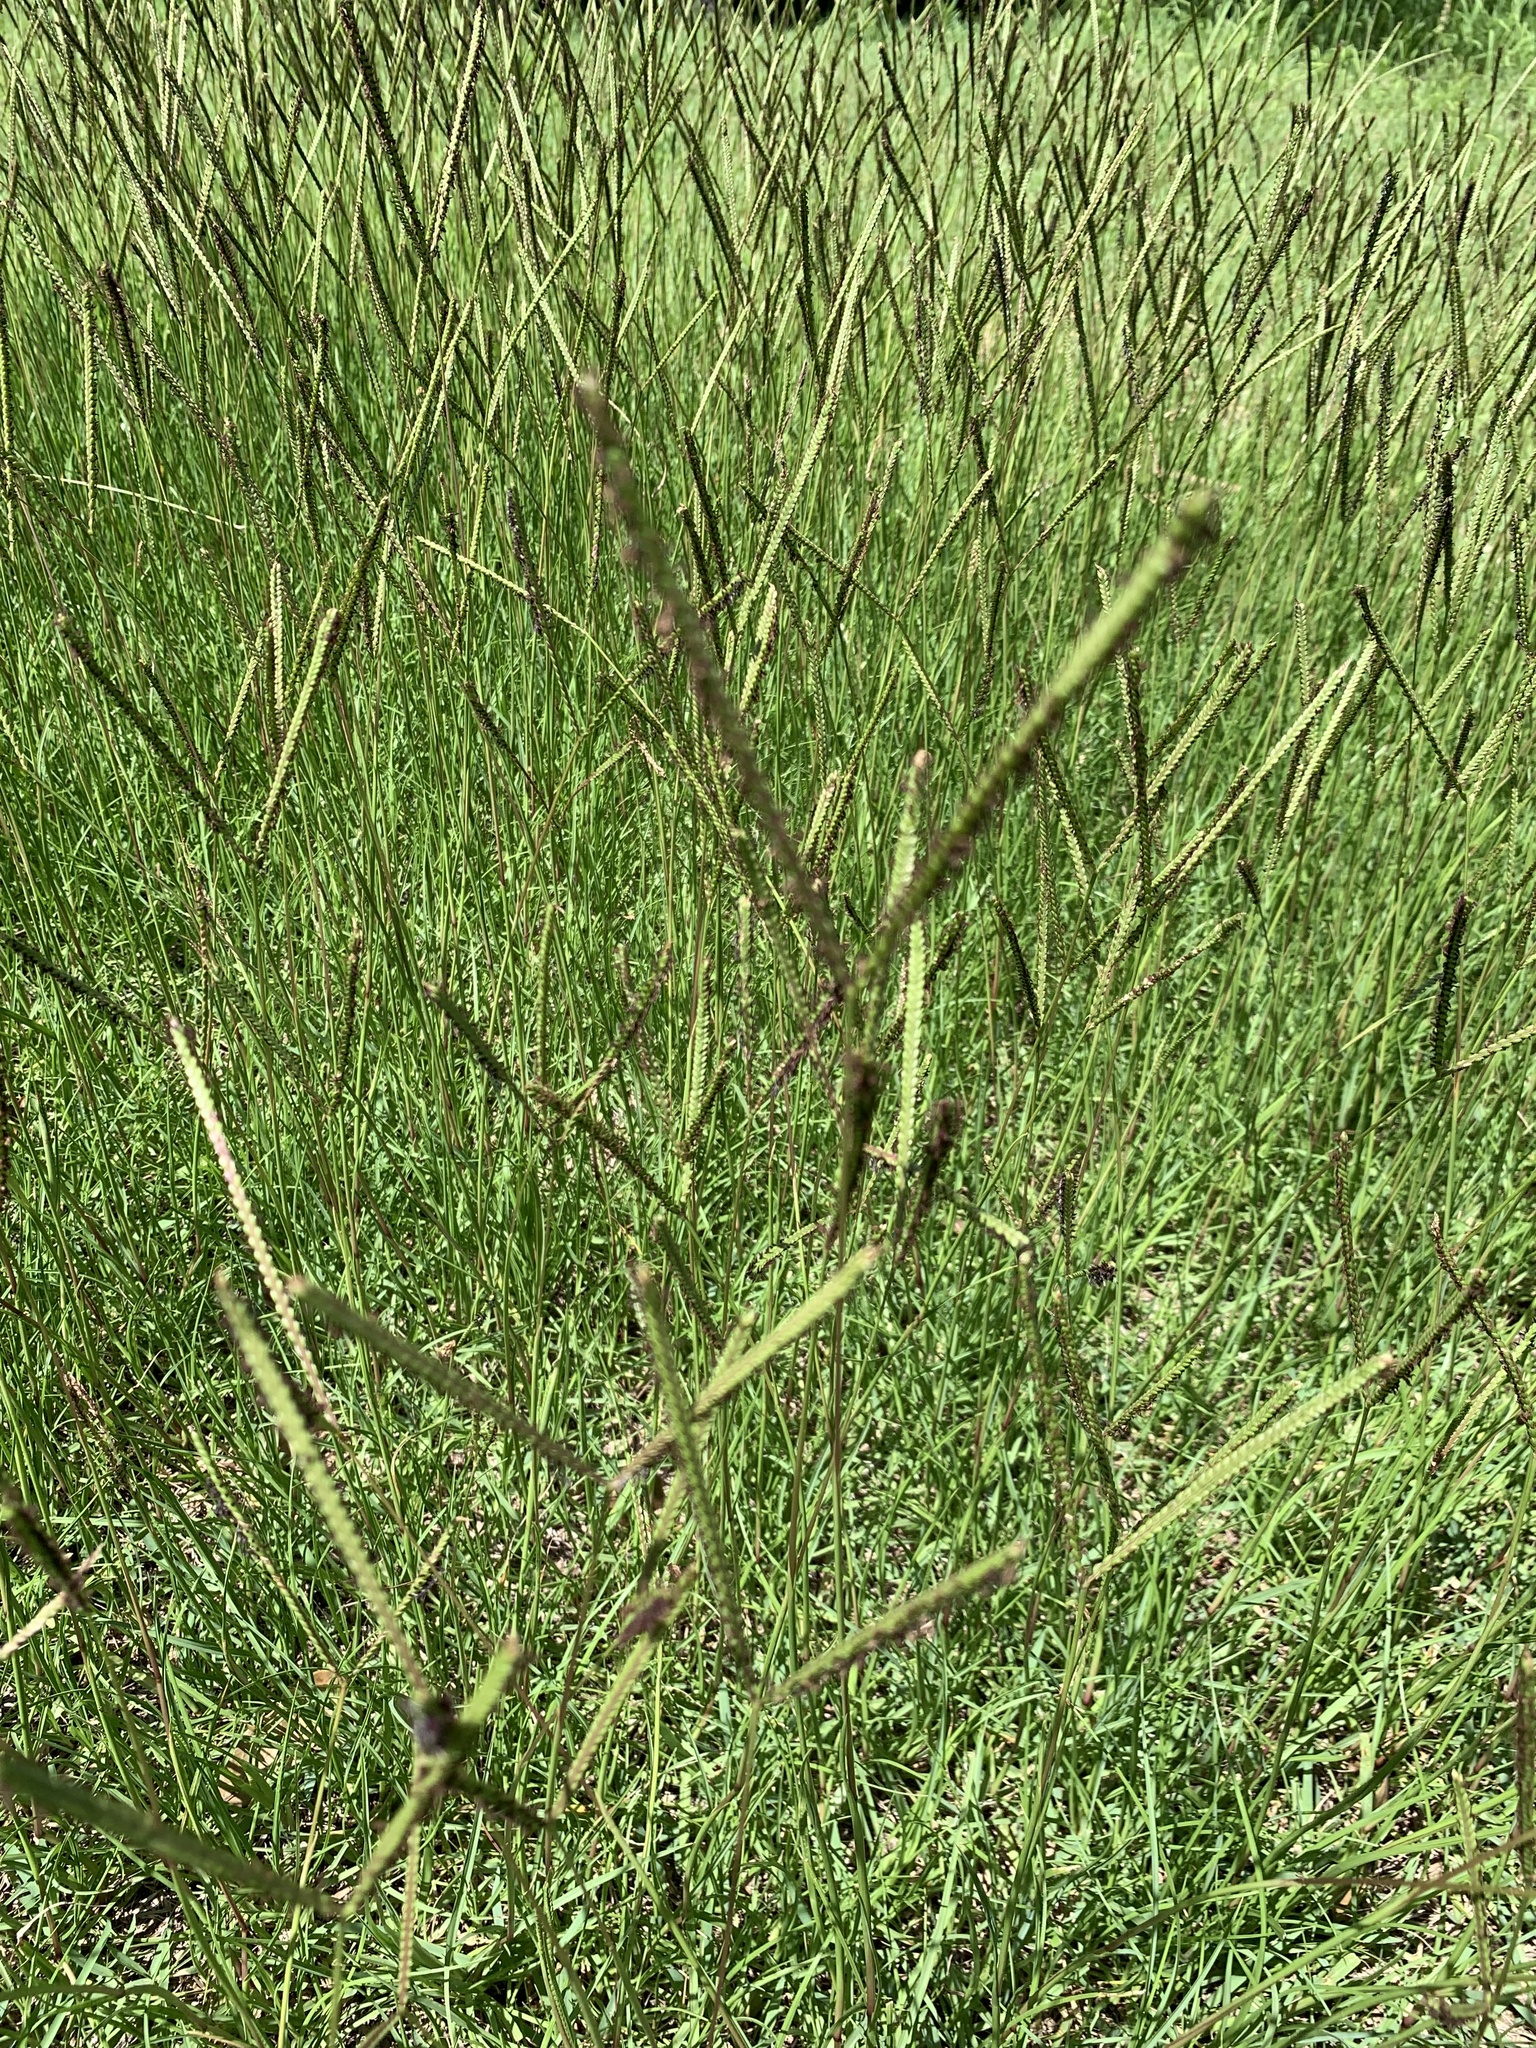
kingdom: Plantae
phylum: Tracheophyta
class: Liliopsida
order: Poales
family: Poaceae
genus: Paspalum
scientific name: Paspalum notatum
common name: Bahiagrass
